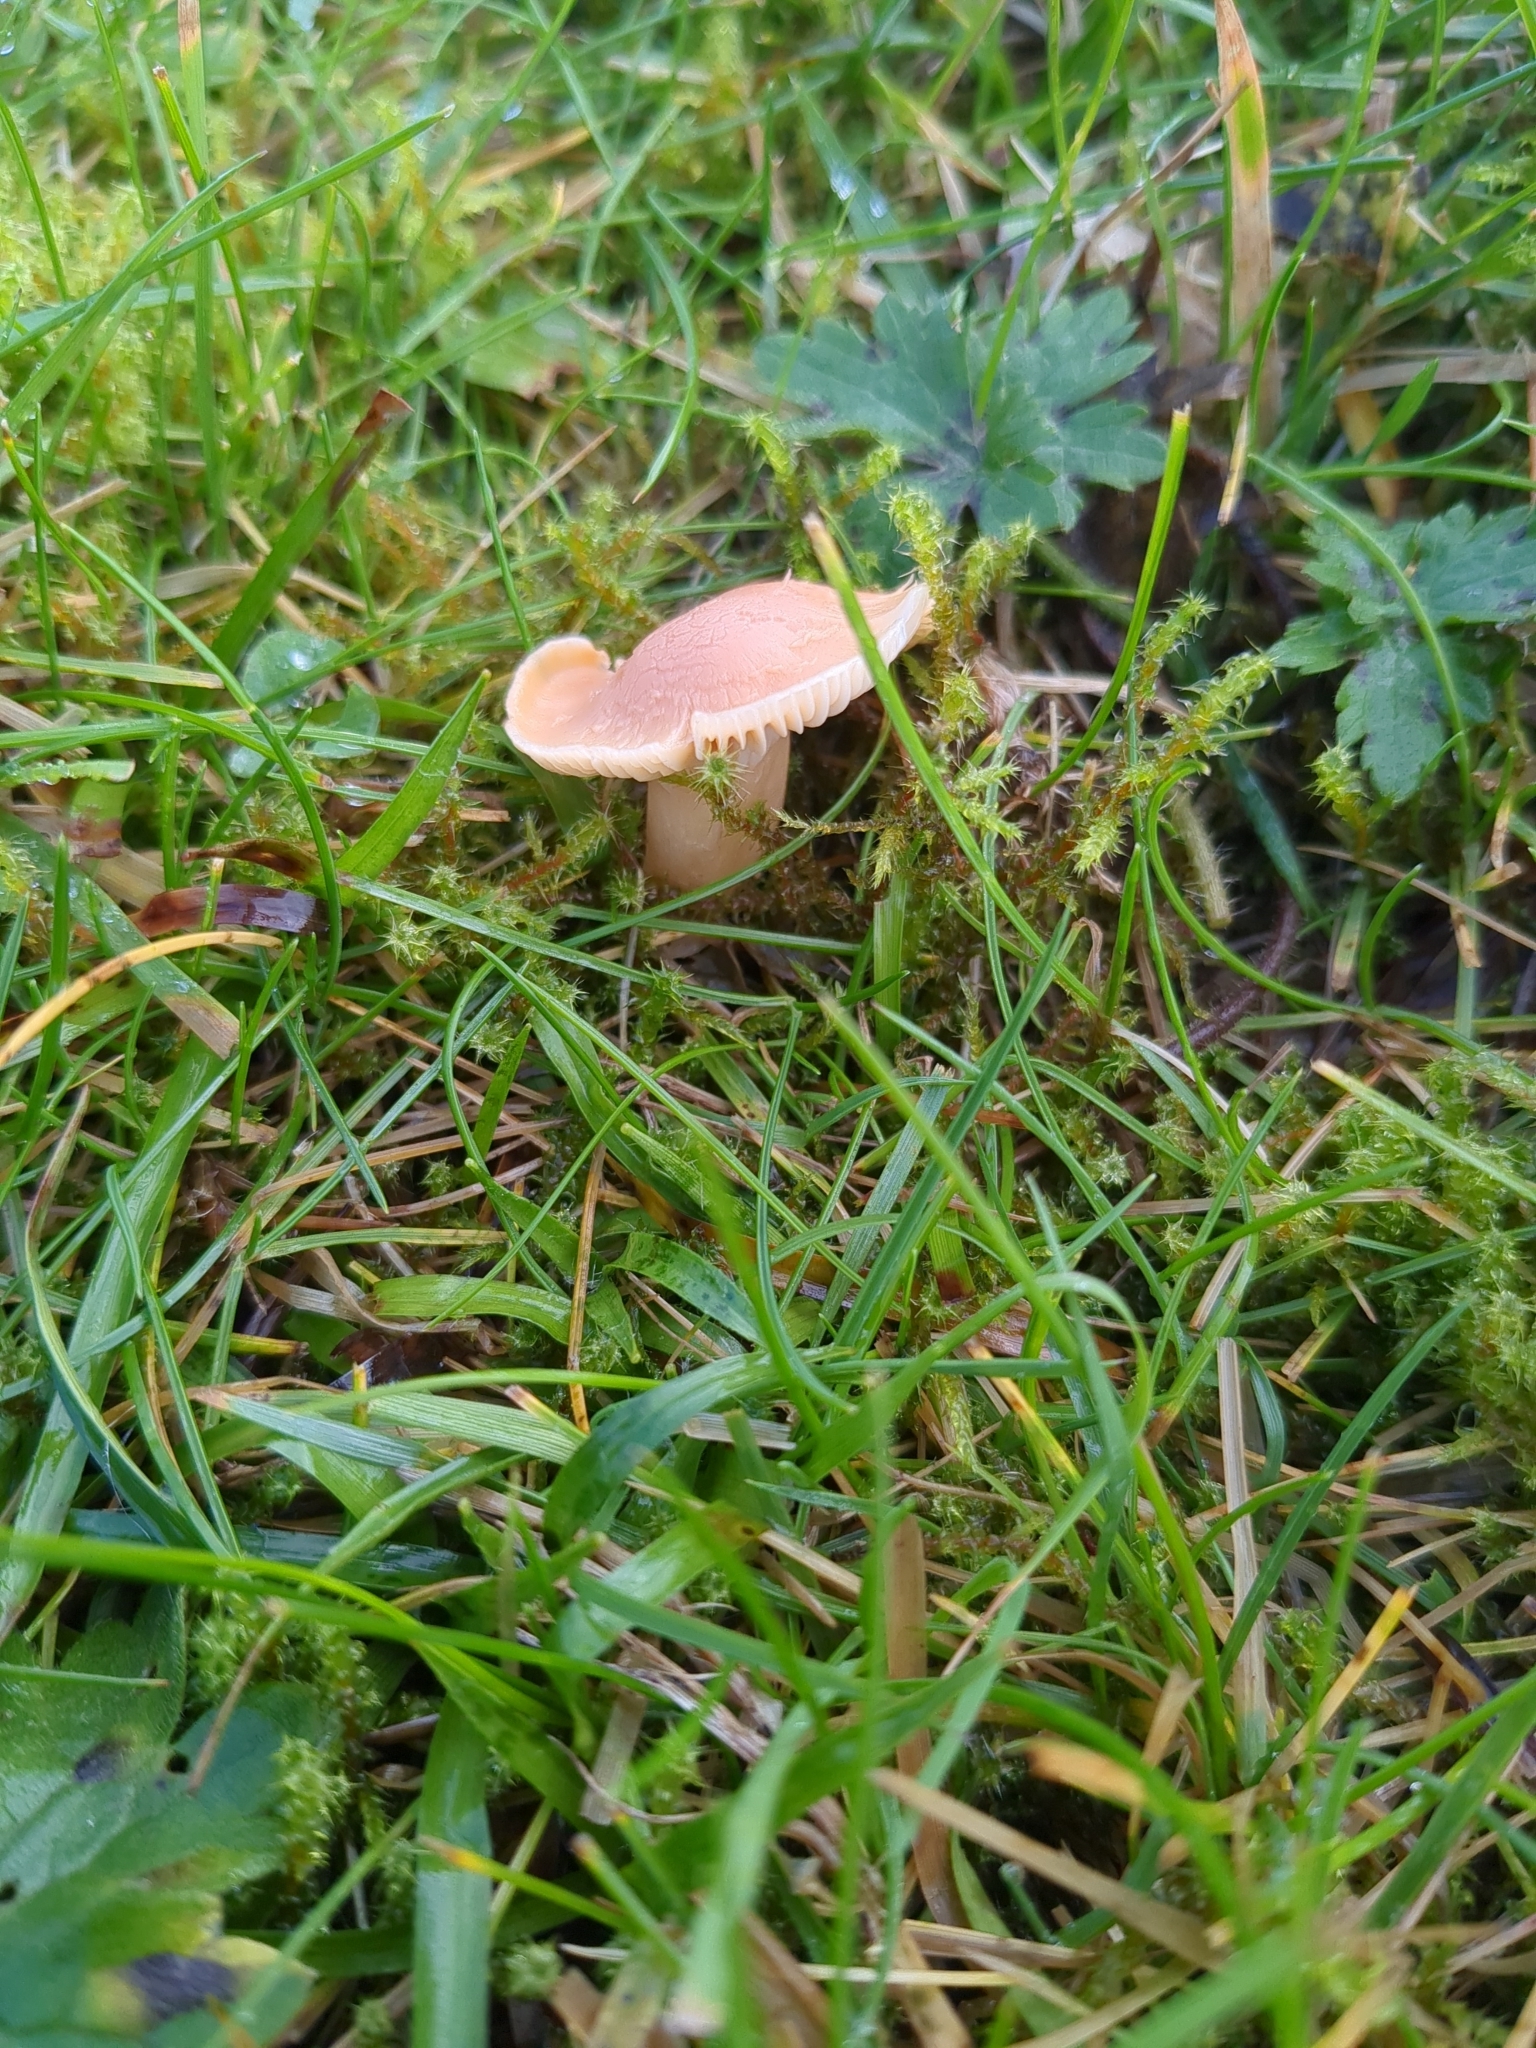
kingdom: Fungi
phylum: Basidiomycota
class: Agaricomycetes
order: Agaricales
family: Hygrophoraceae
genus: Cuphophyllus
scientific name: Cuphophyllus pratensis
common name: Meadow waxcap
